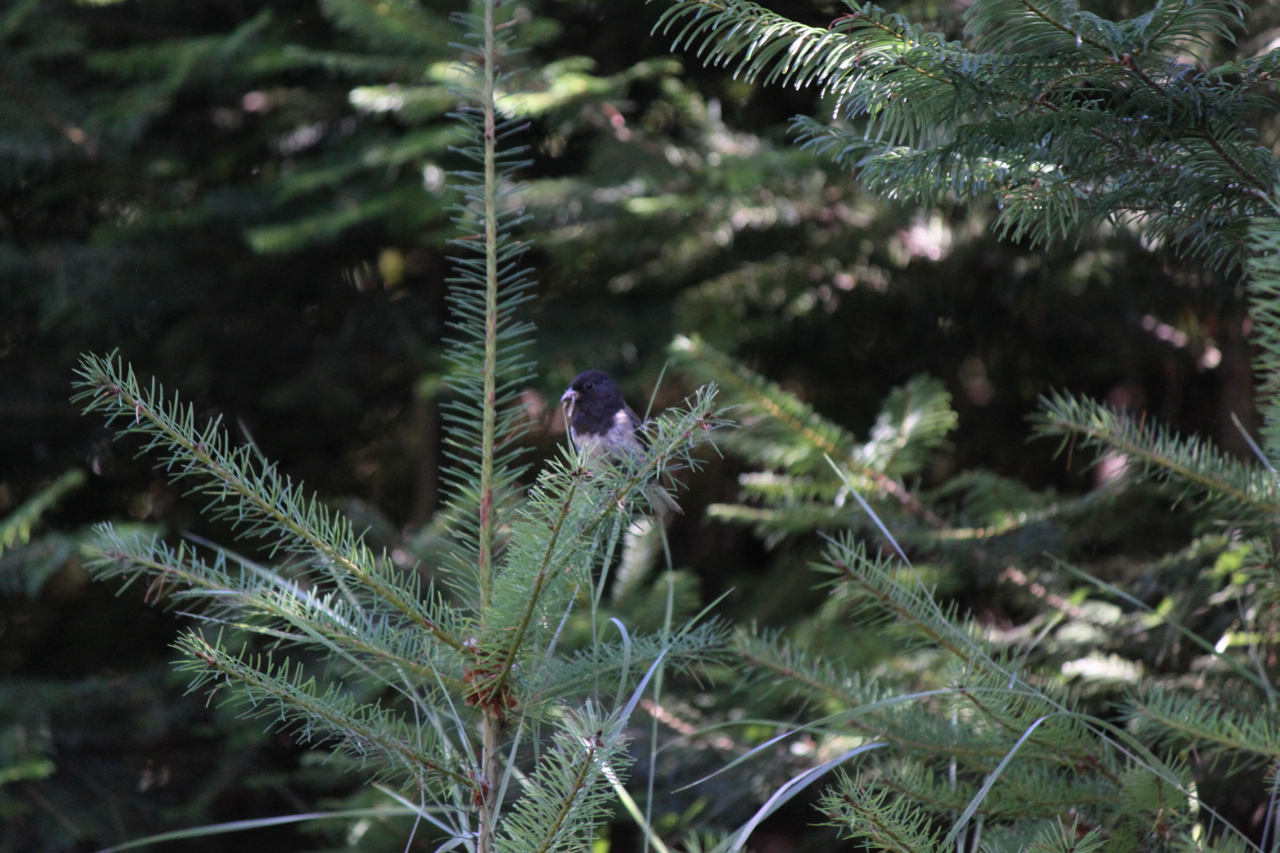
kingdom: Animalia
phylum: Chordata
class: Aves
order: Passeriformes
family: Passerellidae
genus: Junco
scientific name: Junco hyemalis
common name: Dark-eyed junco
